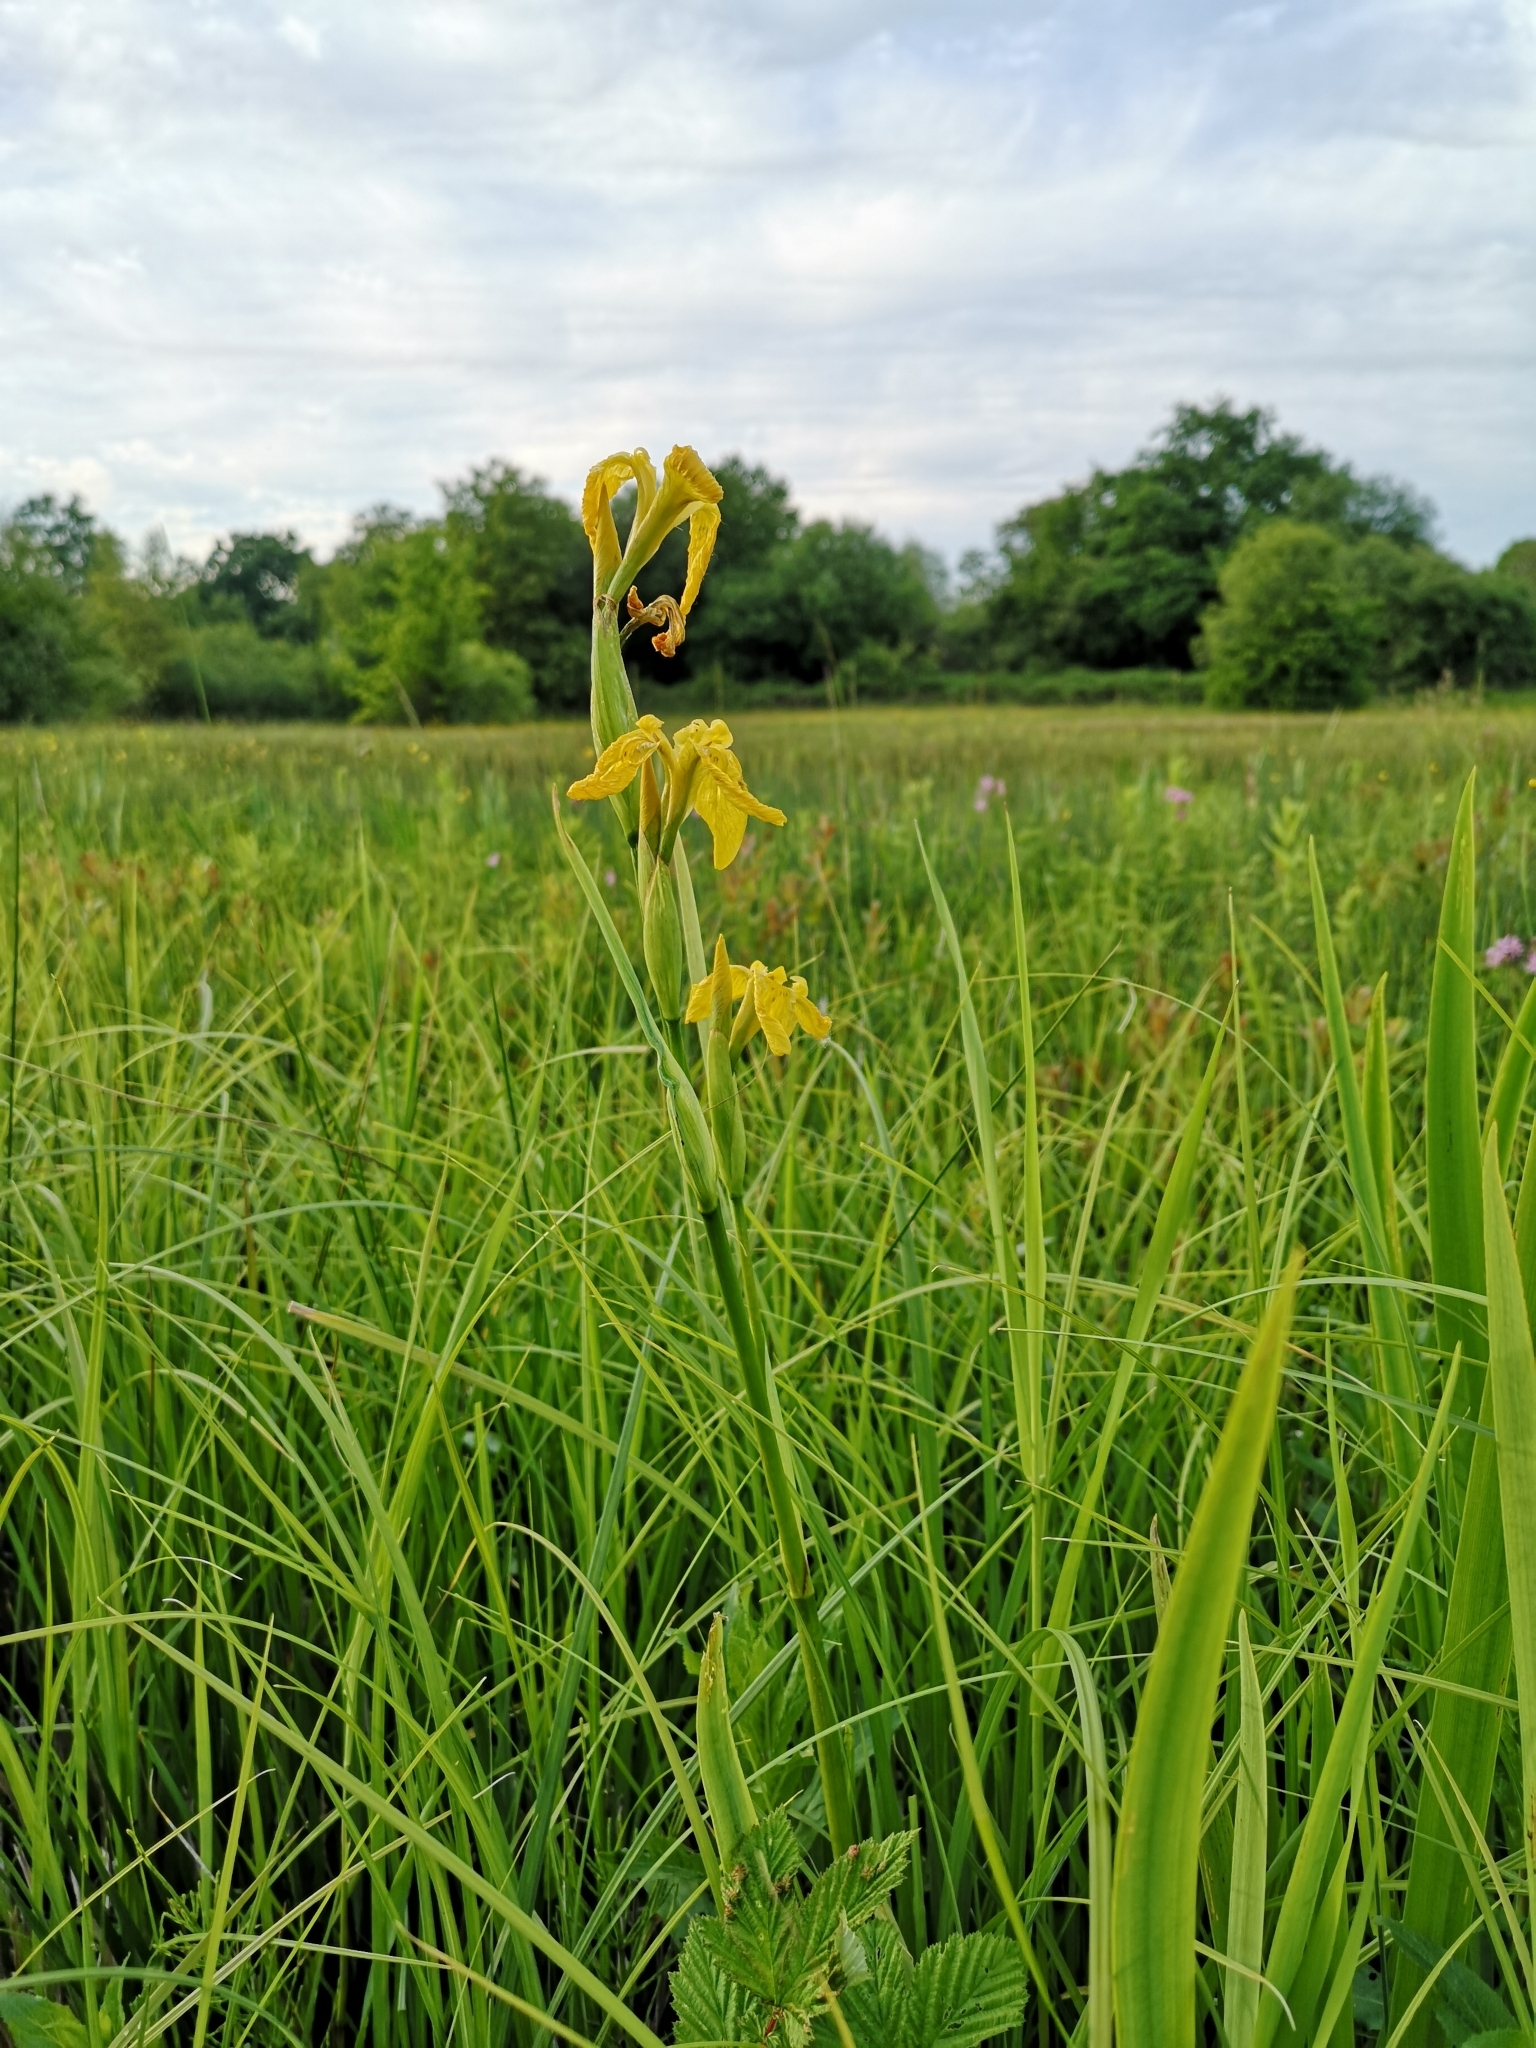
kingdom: Plantae
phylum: Tracheophyta
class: Liliopsida
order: Asparagales
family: Iridaceae
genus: Iris
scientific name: Iris pseudacorus
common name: Yellow flag
